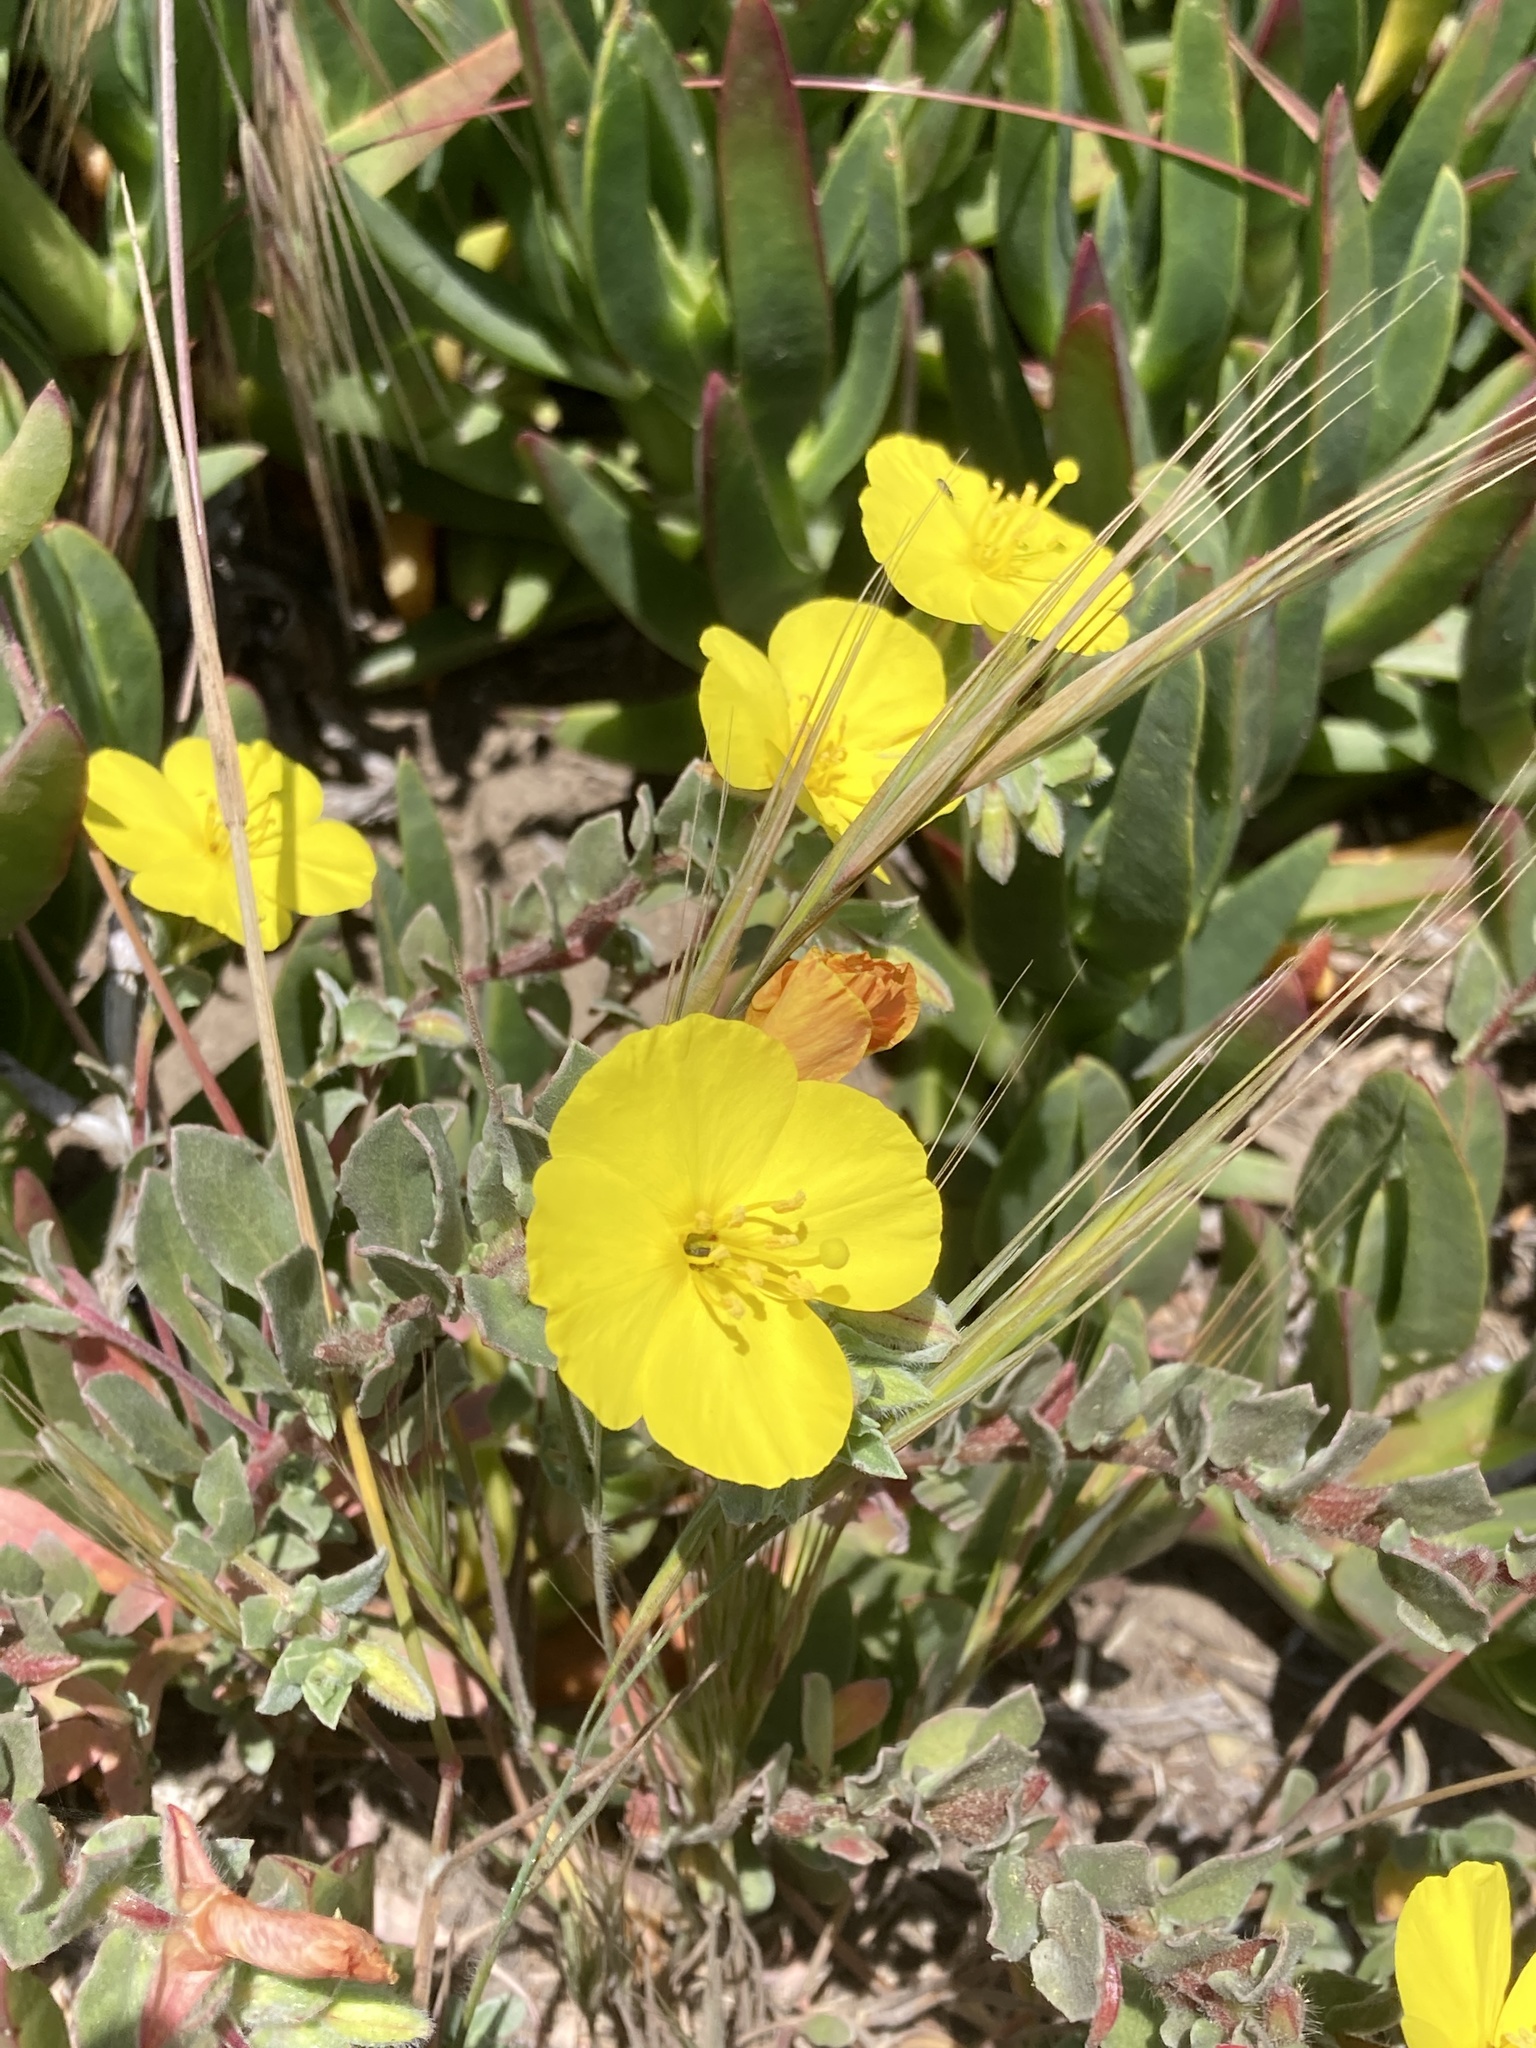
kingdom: Plantae
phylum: Tracheophyta
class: Magnoliopsida
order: Myrtales
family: Onagraceae
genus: Camissoniopsis
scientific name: Camissoniopsis cheiranthifolia
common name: Beach suncup
